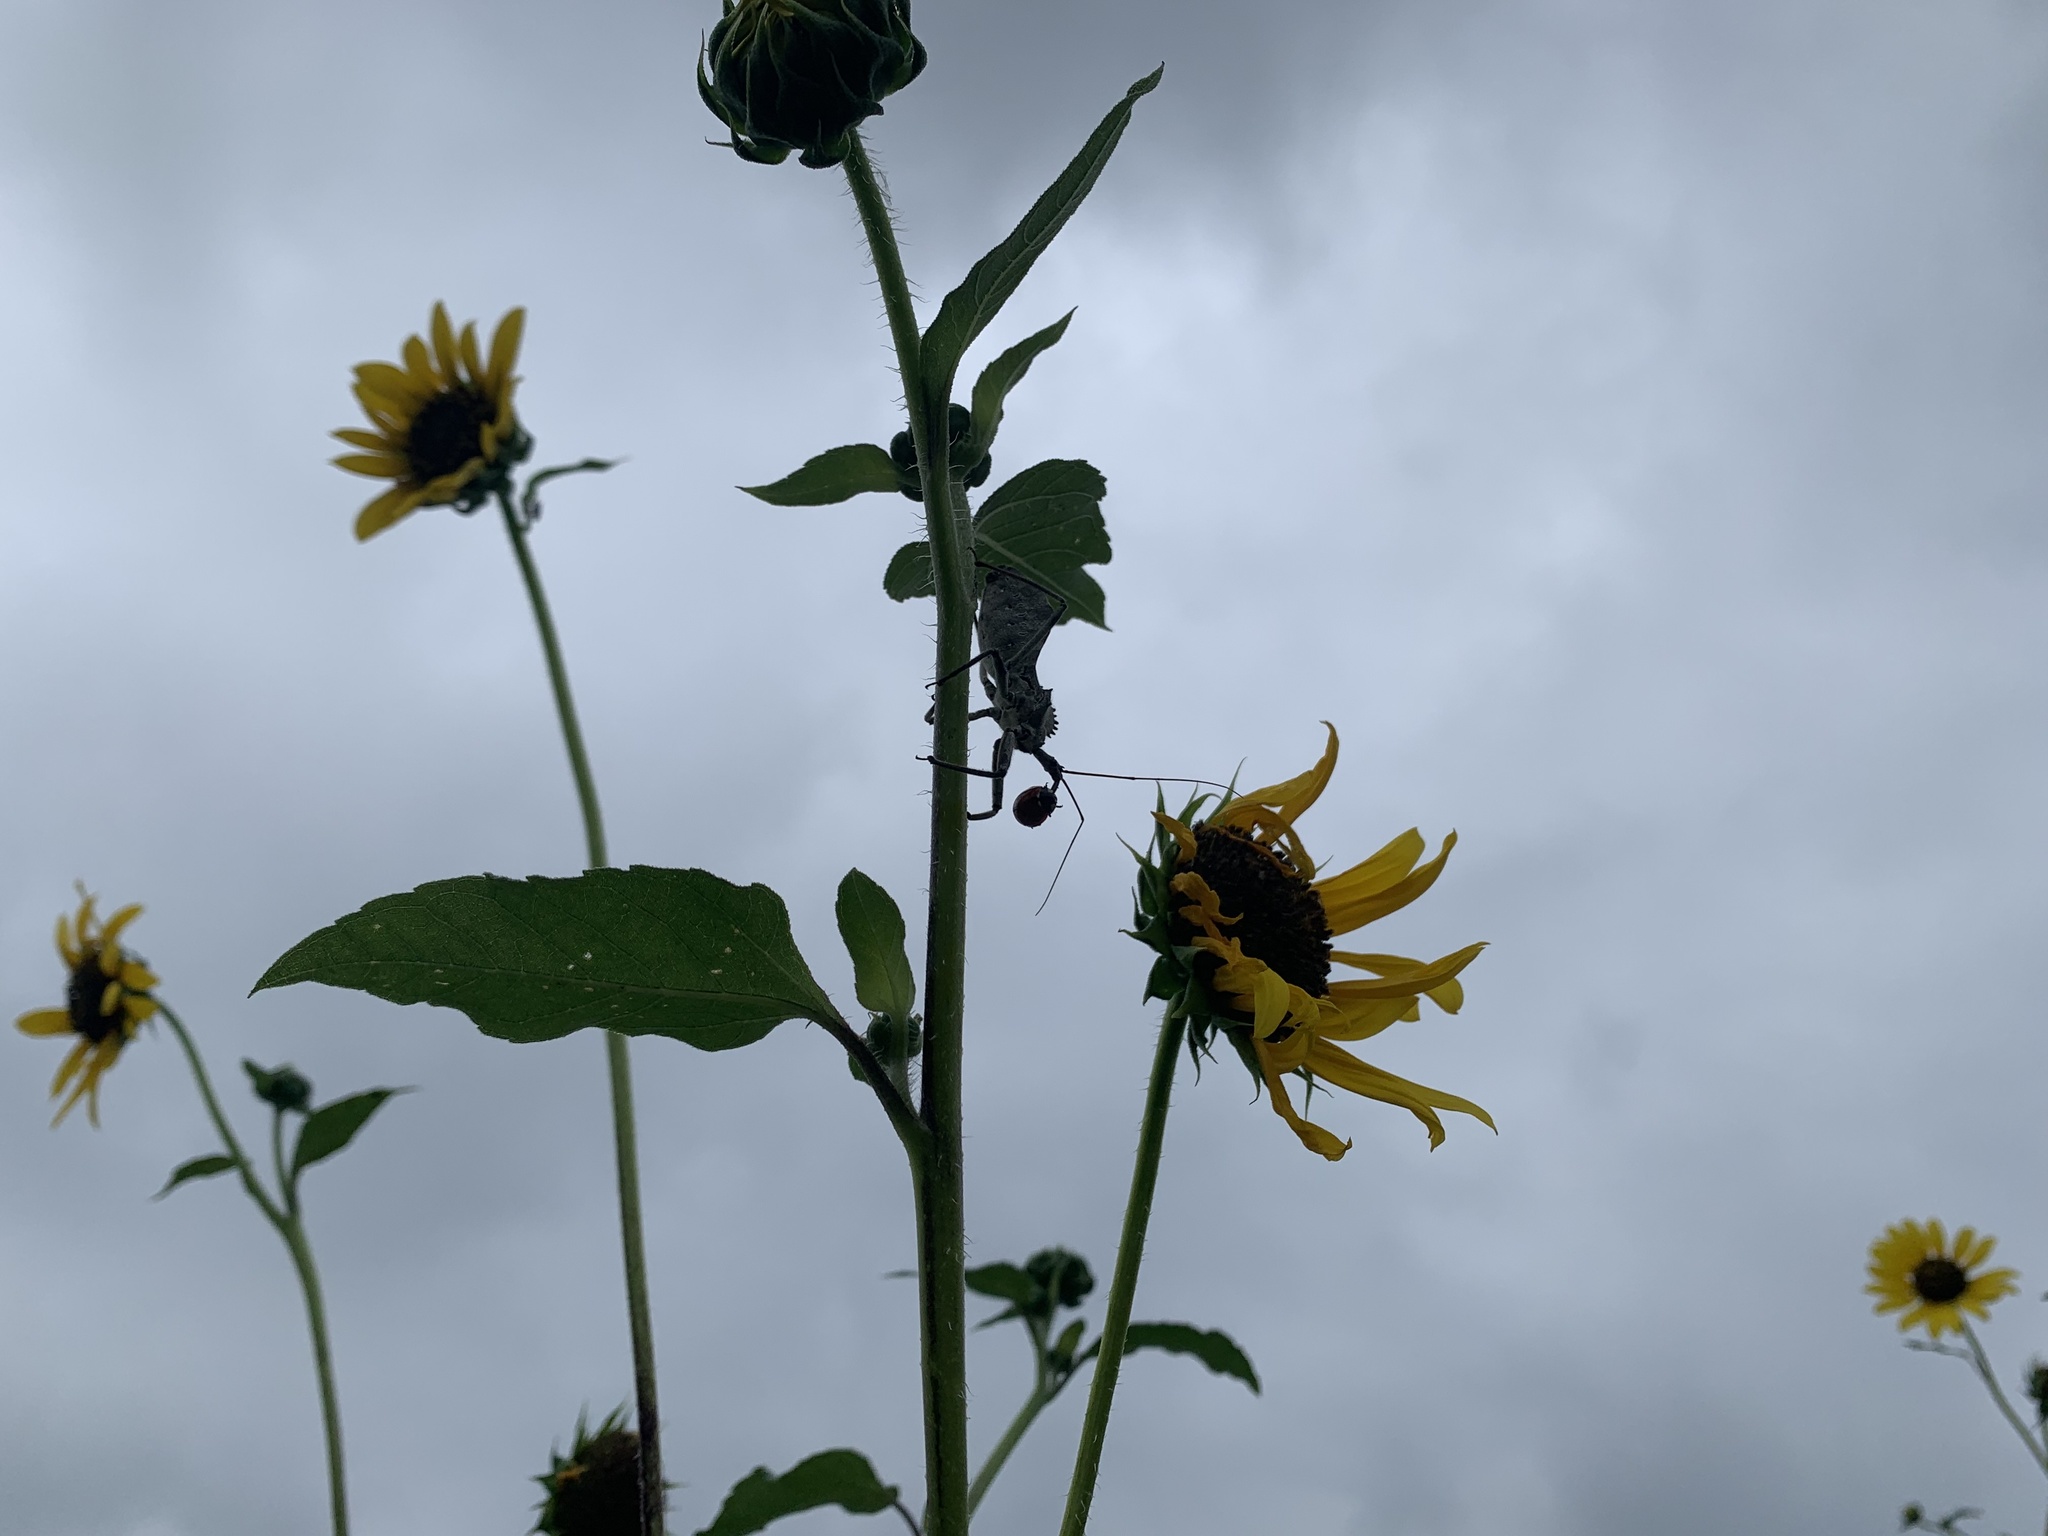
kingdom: Animalia
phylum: Arthropoda
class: Insecta
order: Hemiptera
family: Reduviidae
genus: Arilus
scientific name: Arilus cristatus
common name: North american wheel bug
